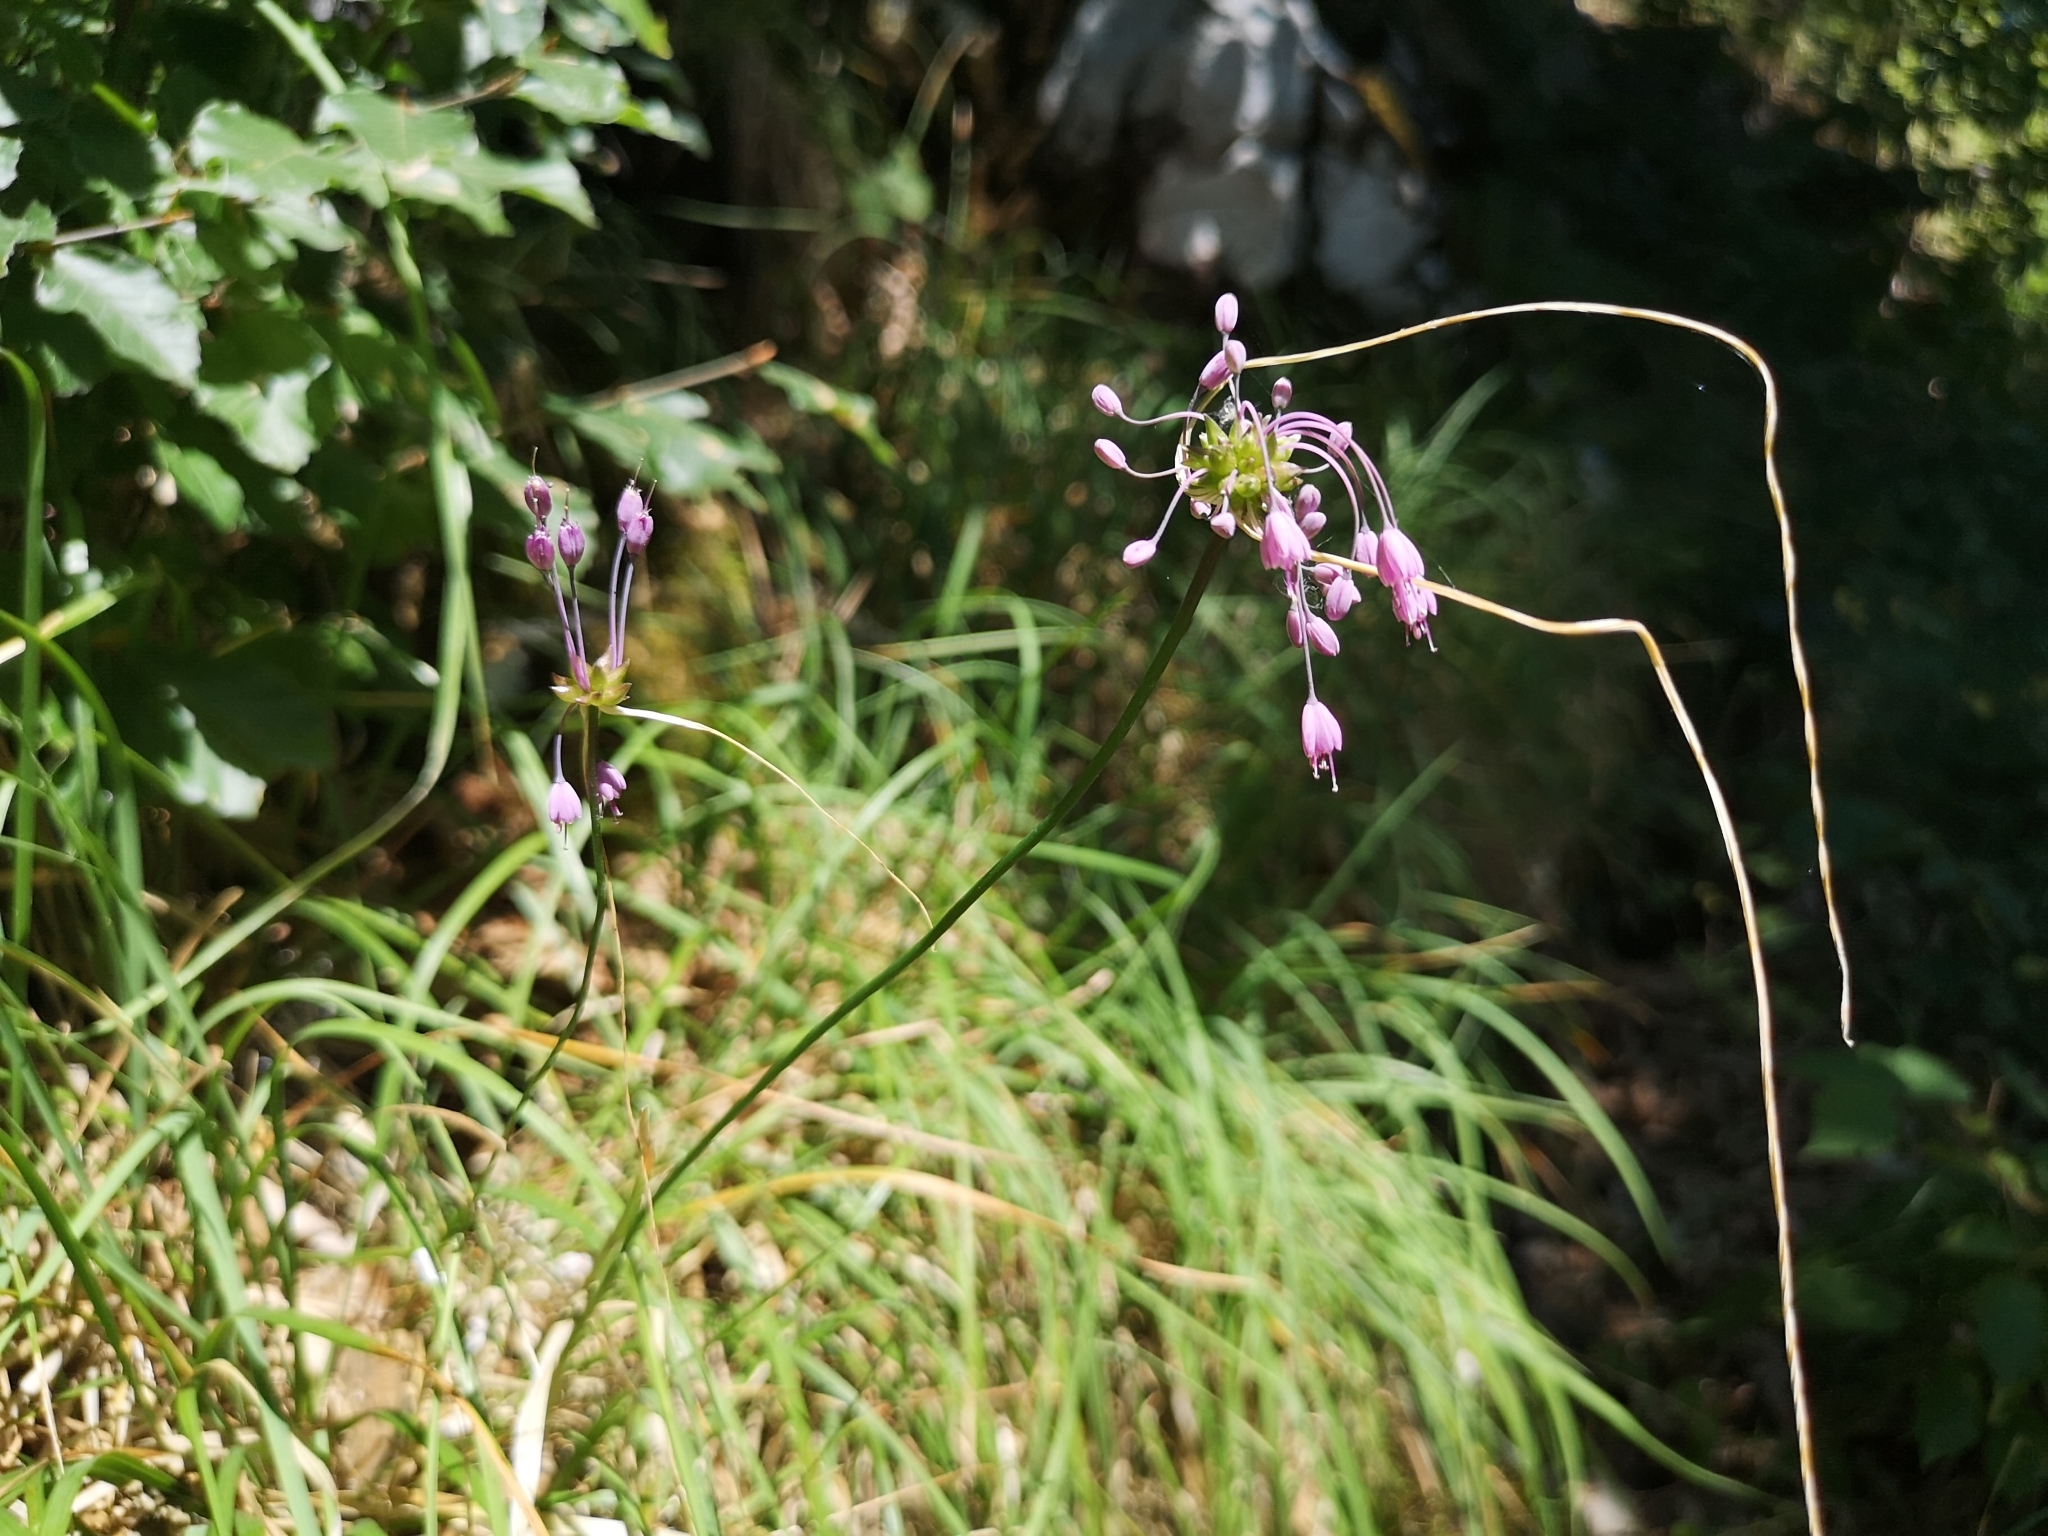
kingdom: Plantae
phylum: Tracheophyta
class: Liliopsida
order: Asparagales
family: Amaryllidaceae
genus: Allium
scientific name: Allium carinatum
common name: Keeled garlic
